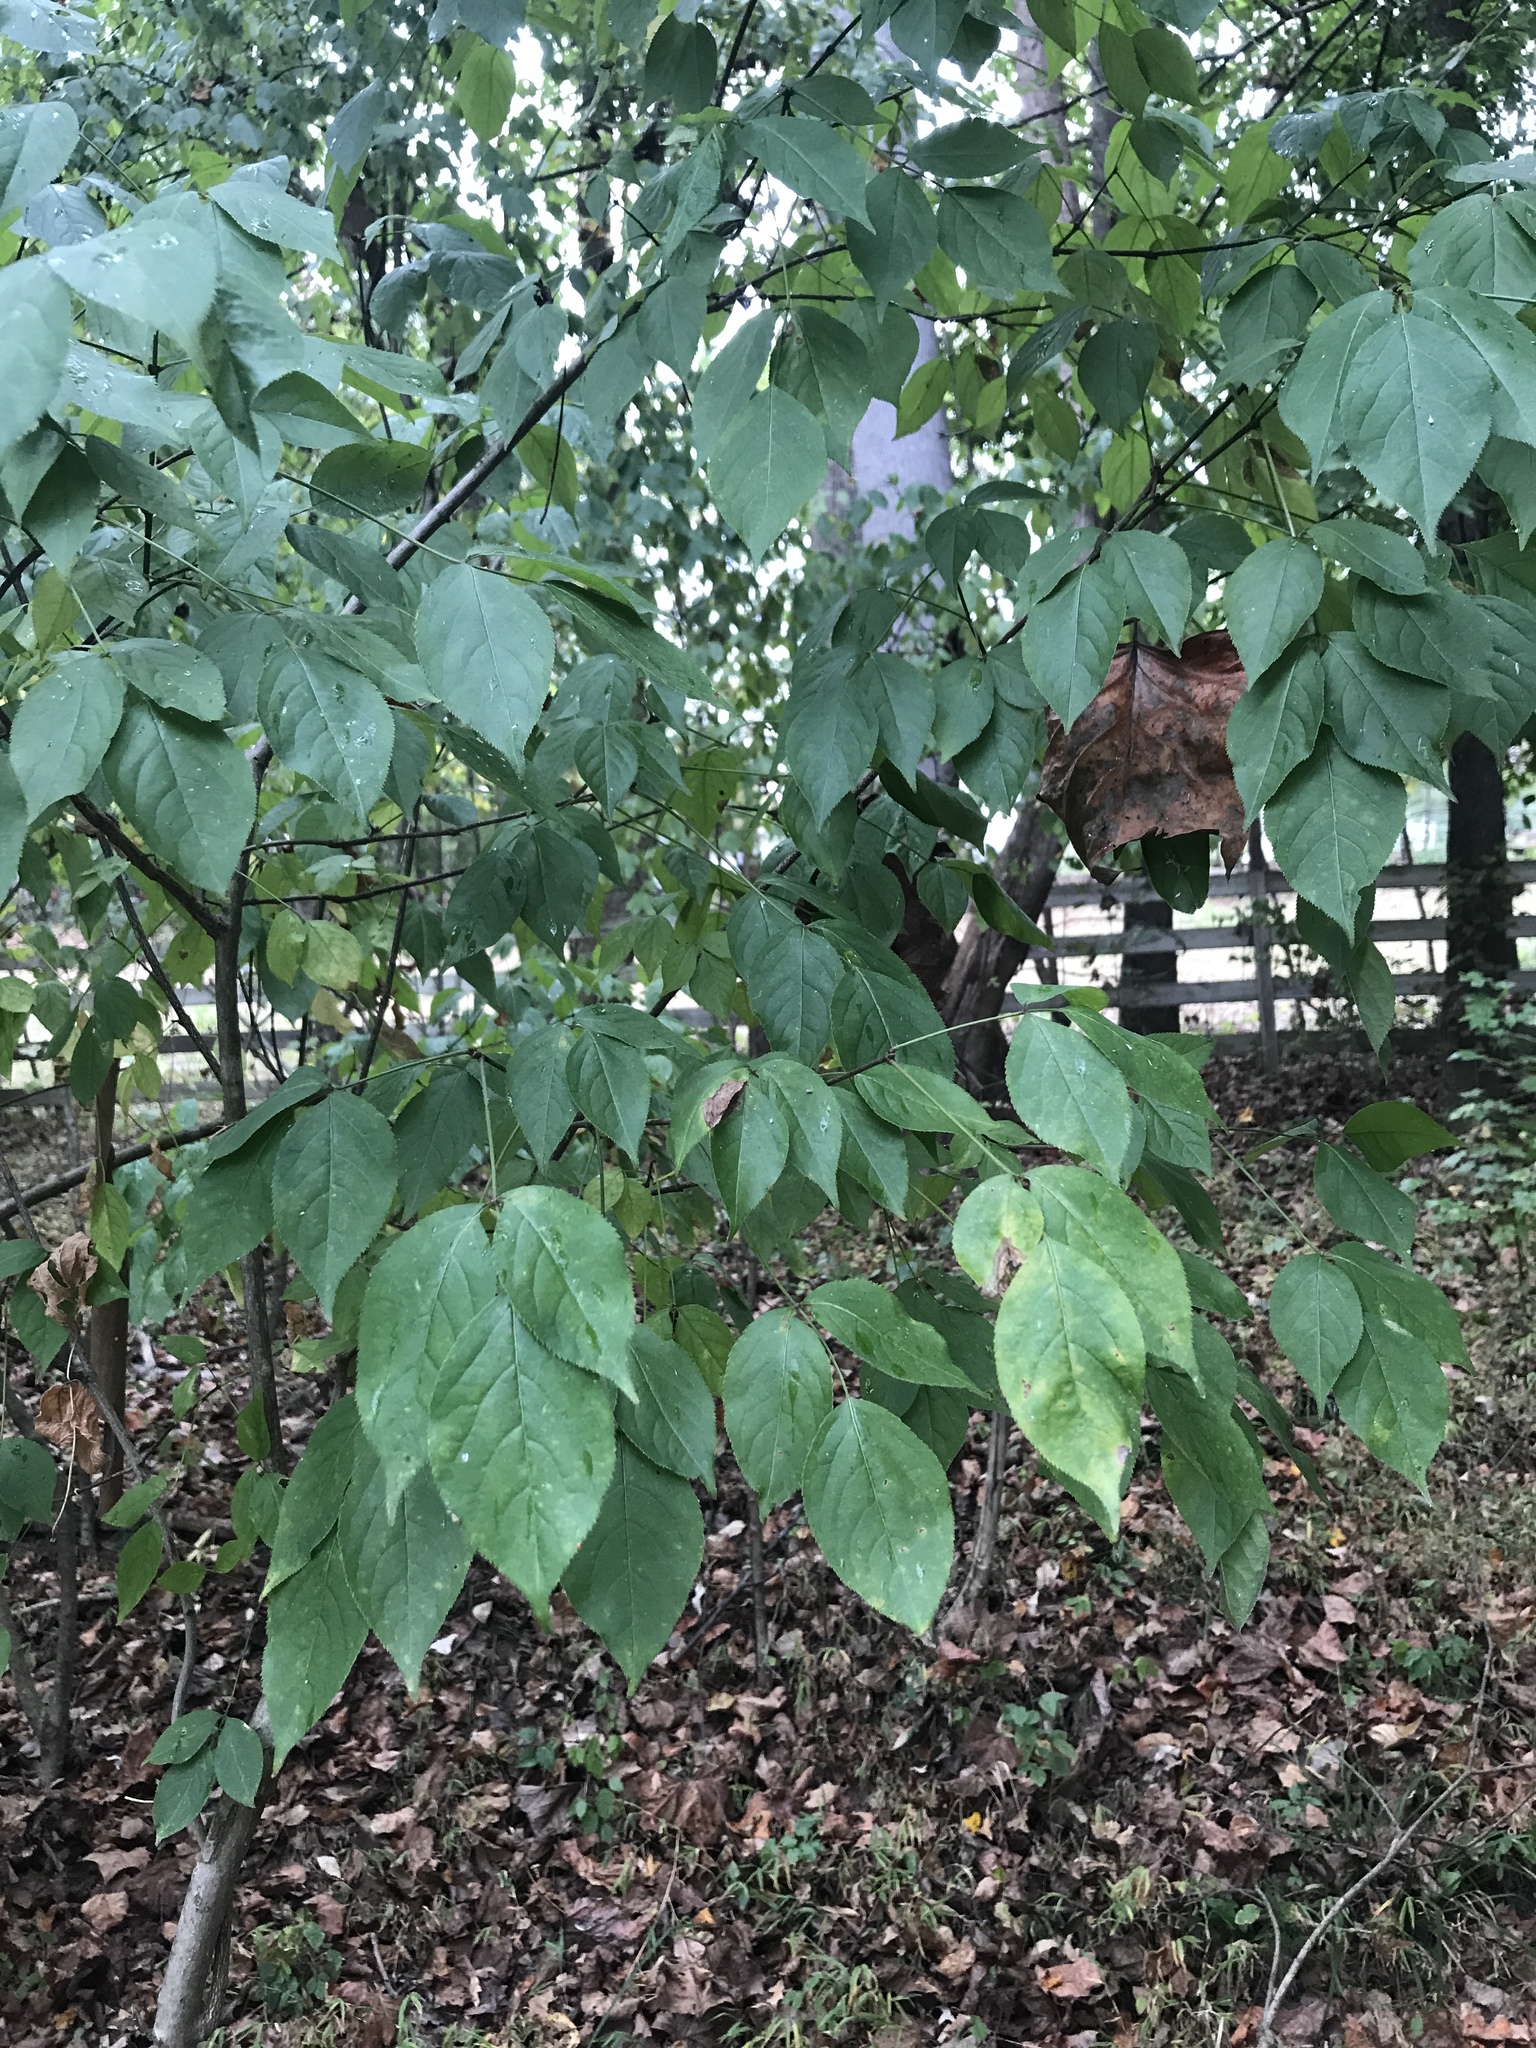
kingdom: Plantae
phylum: Tracheophyta
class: Magnoliopsida
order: Crossosomatales
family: Staphyleaceae
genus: Staphylea
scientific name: Staphylea trifolia
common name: American bladdernut
